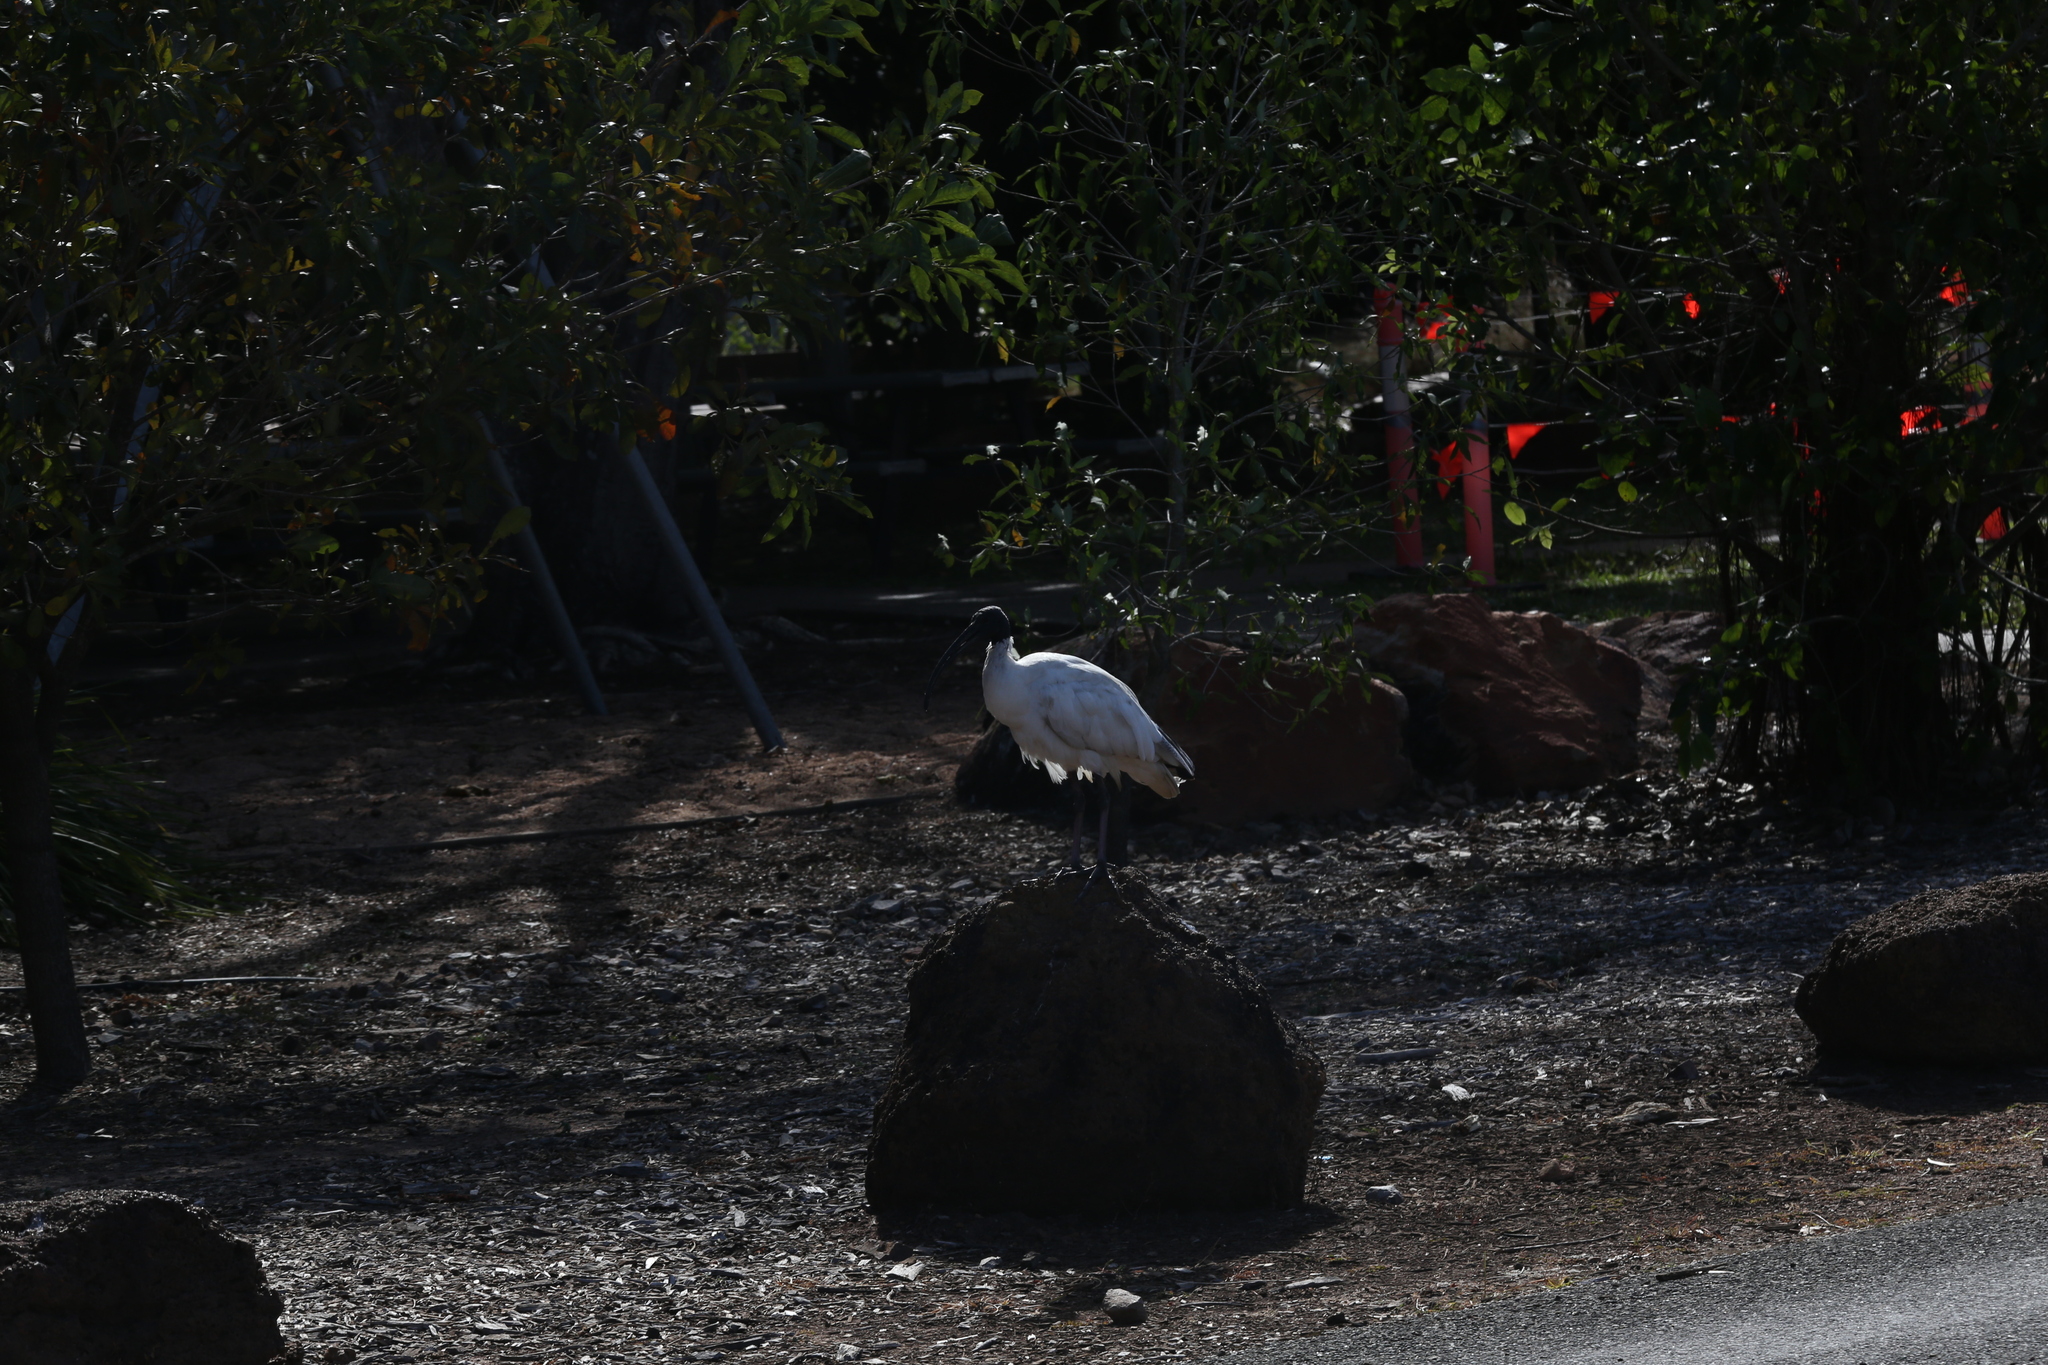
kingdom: Animalia
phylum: Chordata
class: Aves
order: Pelecaniformes
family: Threskiornithidae
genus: Threskiornis
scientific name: Threskiornis molucca
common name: Australian white ibis
